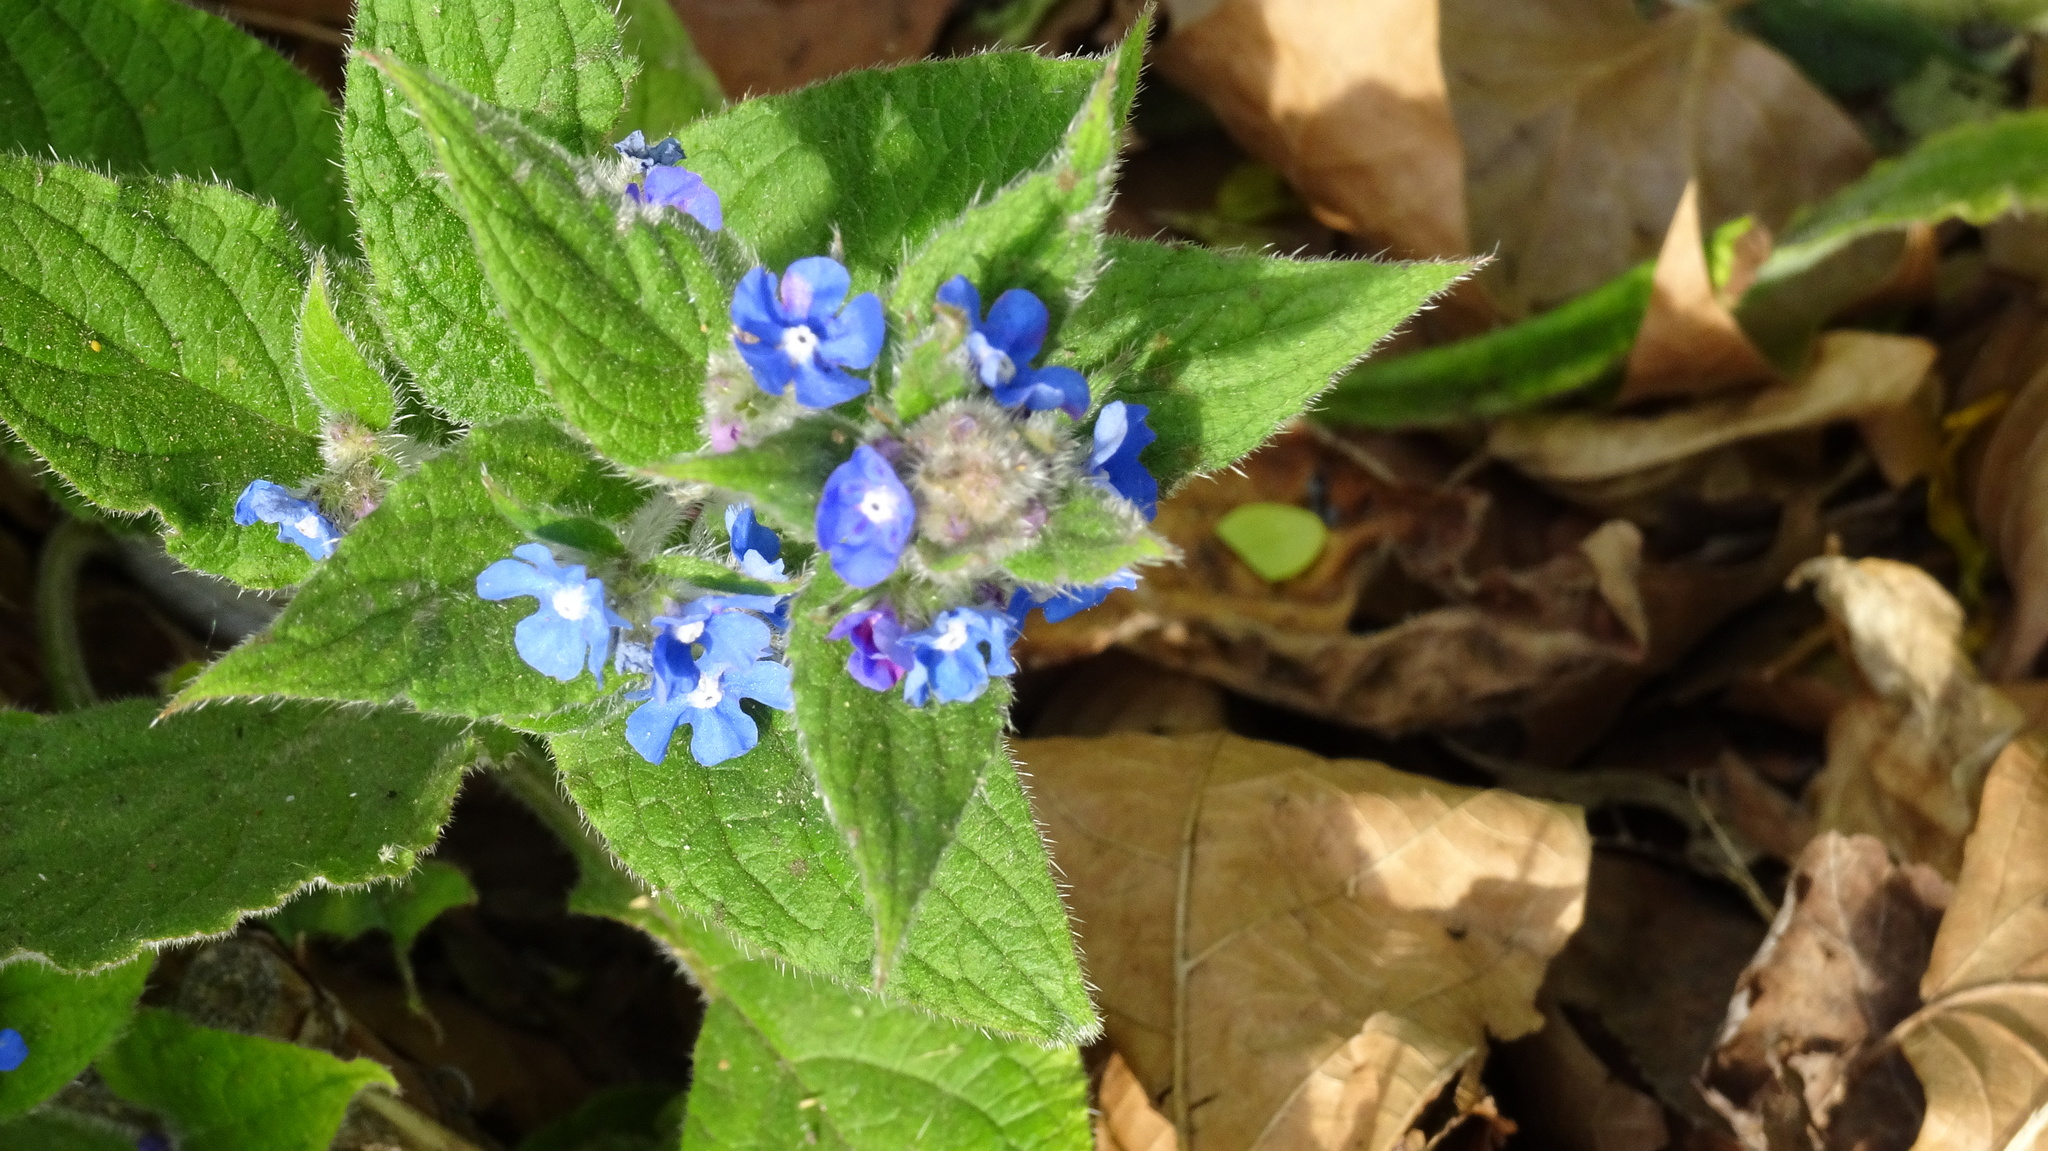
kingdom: Plantae
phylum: Tracheophyta
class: Magnoliopsida
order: Boraginales
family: Boraginaceae
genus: Pentaglottis
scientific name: Pentaglottis sempervirens
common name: Green alkanet
